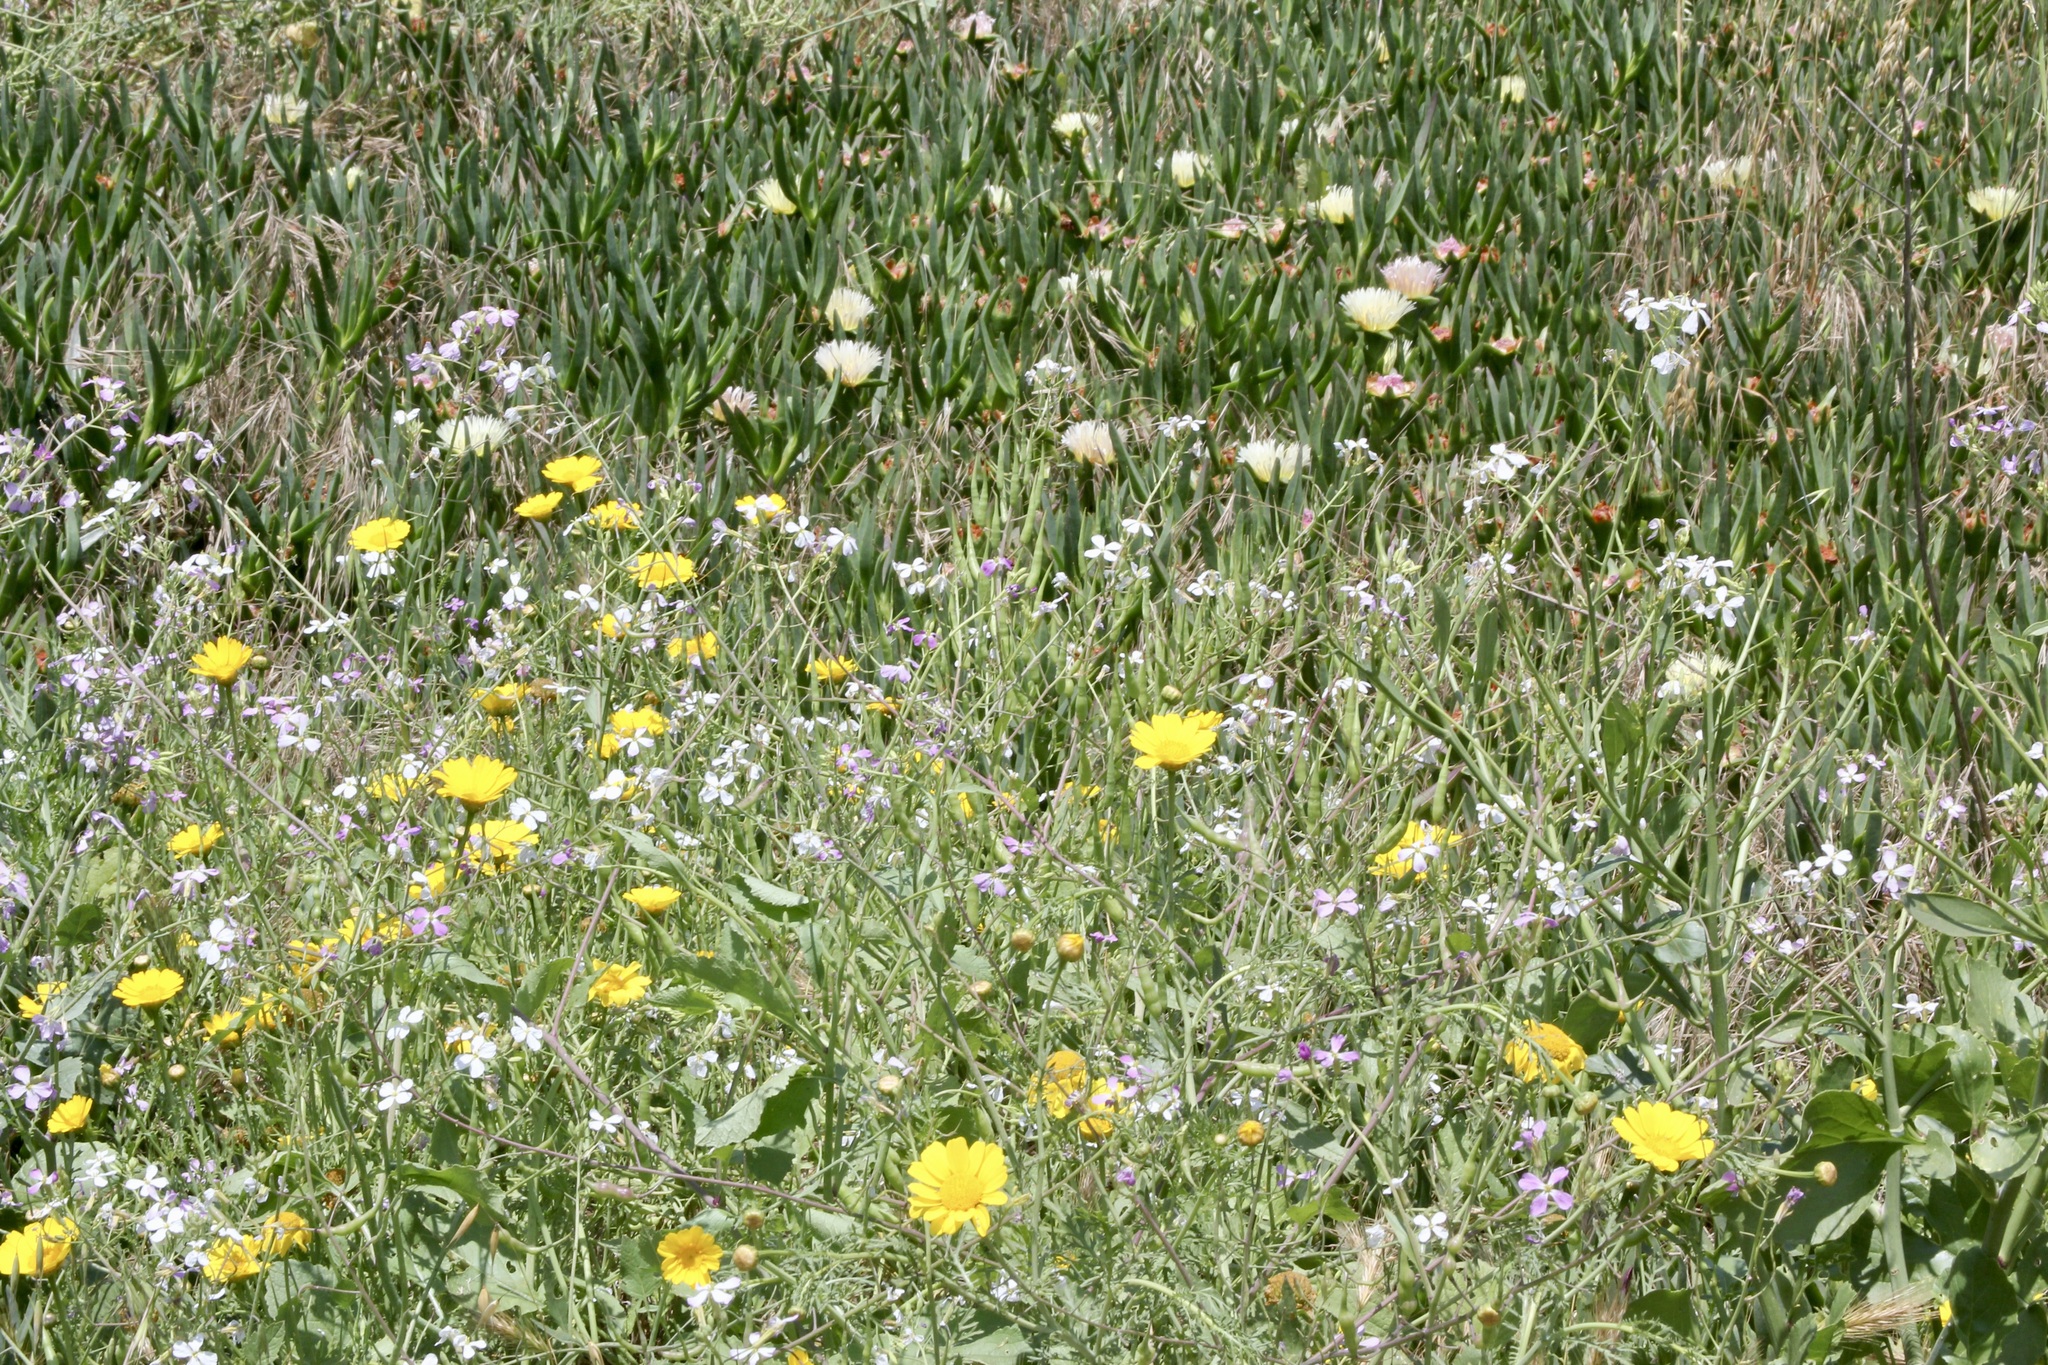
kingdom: Plantae
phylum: Tracheophyta
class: Magnoliopsida
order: Brassicales
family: Brassicaceae
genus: Raphanus
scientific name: Raphanus sativus
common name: Cultivated radish
